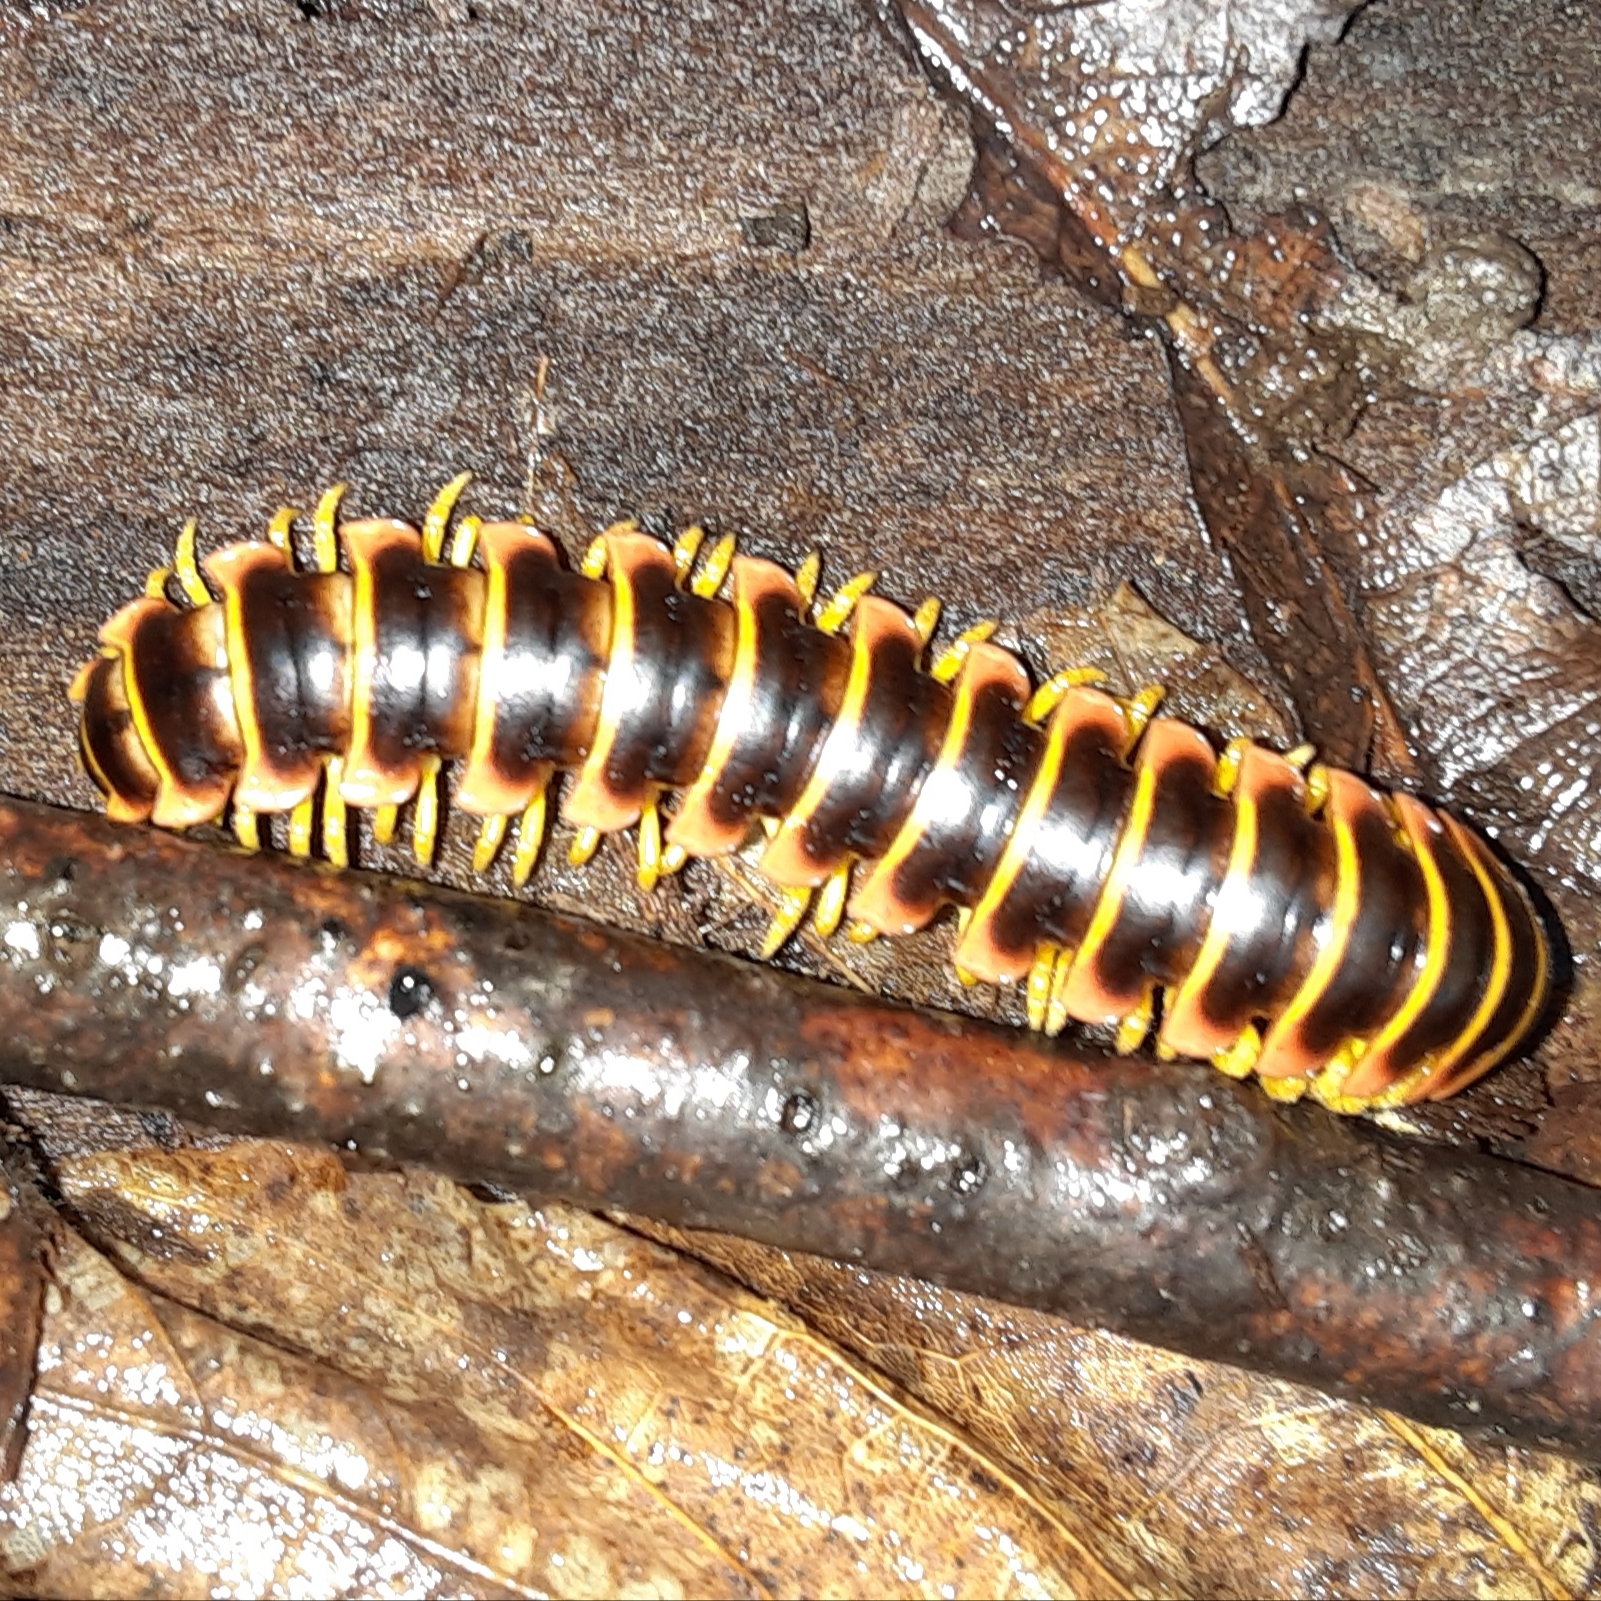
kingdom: Animalia
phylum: Arthropoda
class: Diplopoda
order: Polydesmida
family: Xystodesmidae
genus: Apheloria
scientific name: Apheloria virginiensis
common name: Black-and-gold flat millipede
